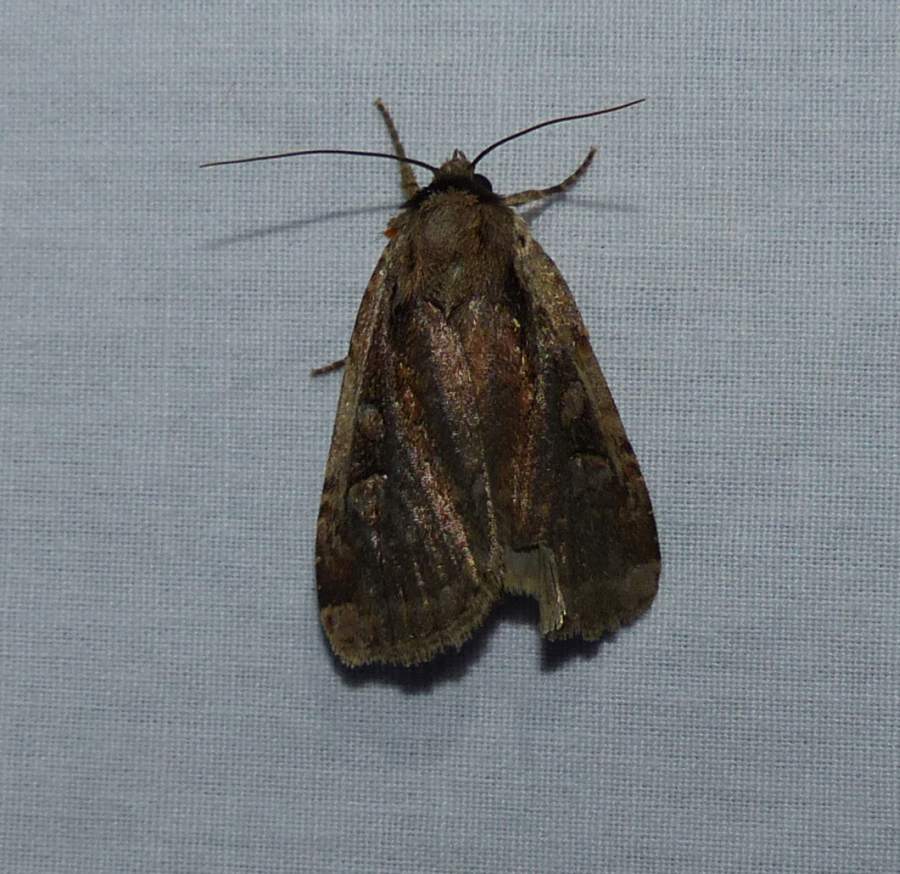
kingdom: Animalia
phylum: Arthropoda
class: Insecta
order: Lepidoptera
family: Noctuidae
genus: Eueretagrotis
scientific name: Eueretagrotis sigmoides
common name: Sigmoid dart
